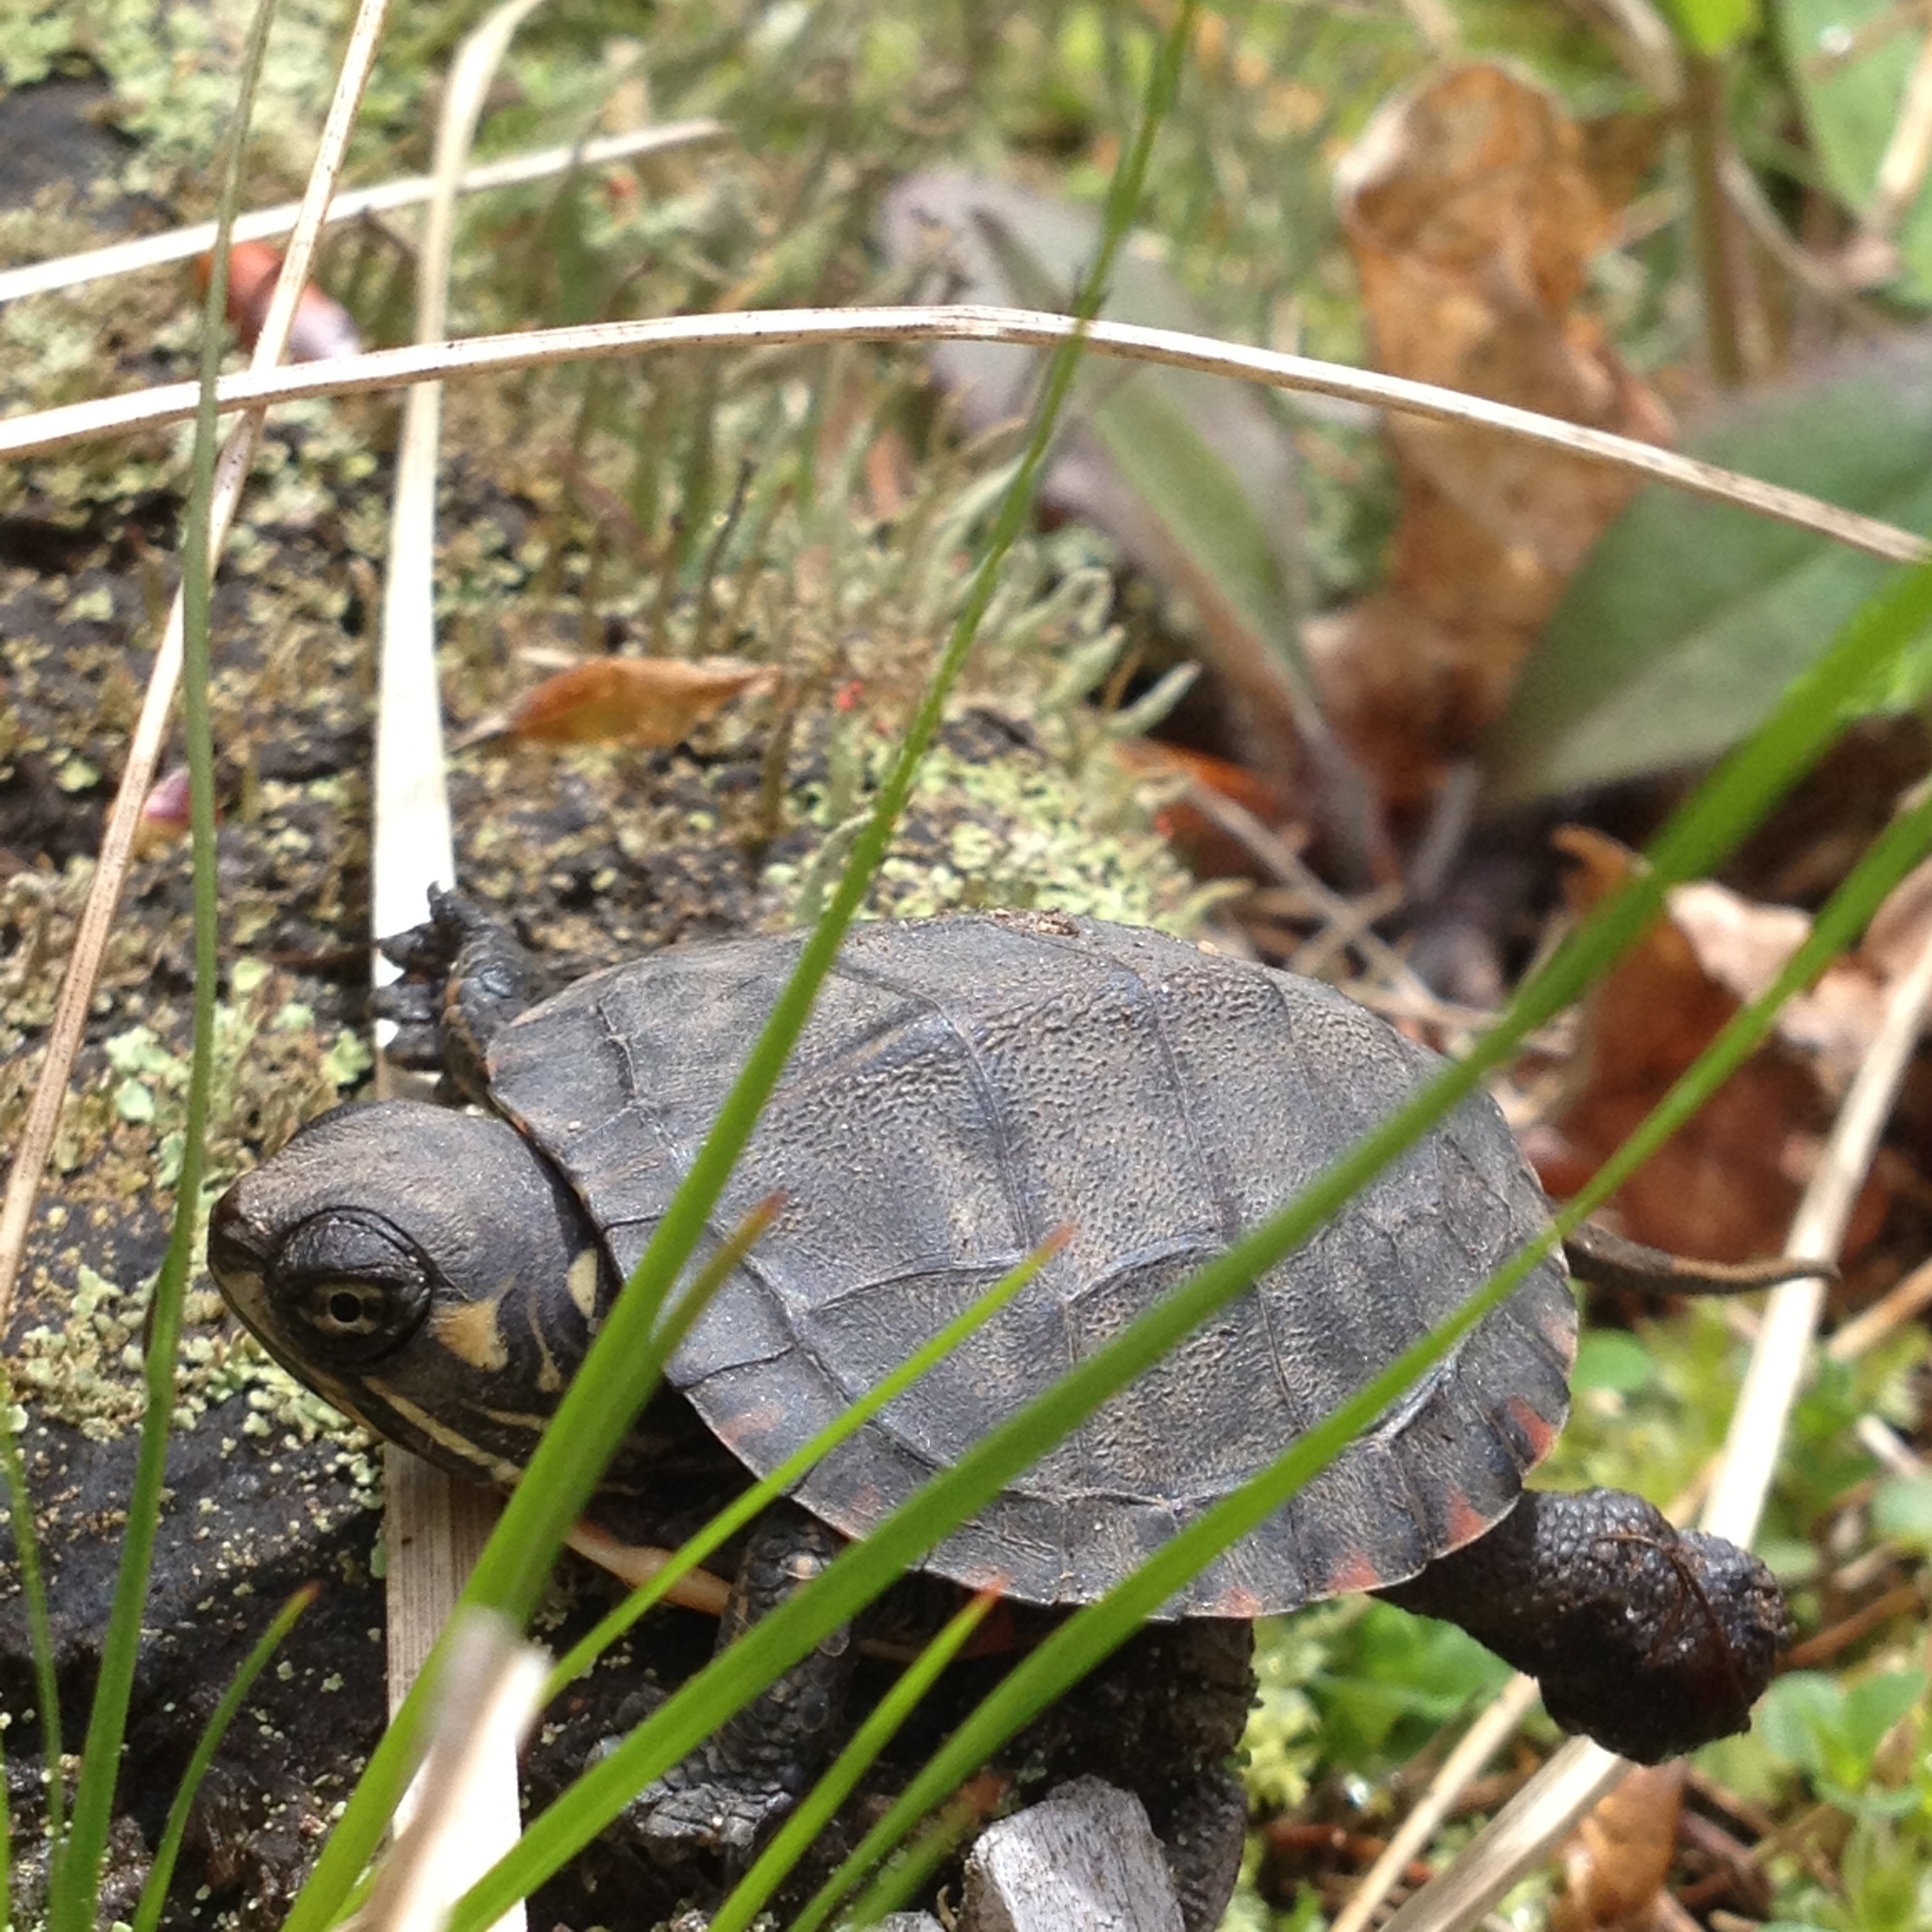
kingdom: Animalia
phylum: Chordata
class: Testudines
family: Emydidae
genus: Chrysemys
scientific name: Chrysemys picta
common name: Painted turtle
